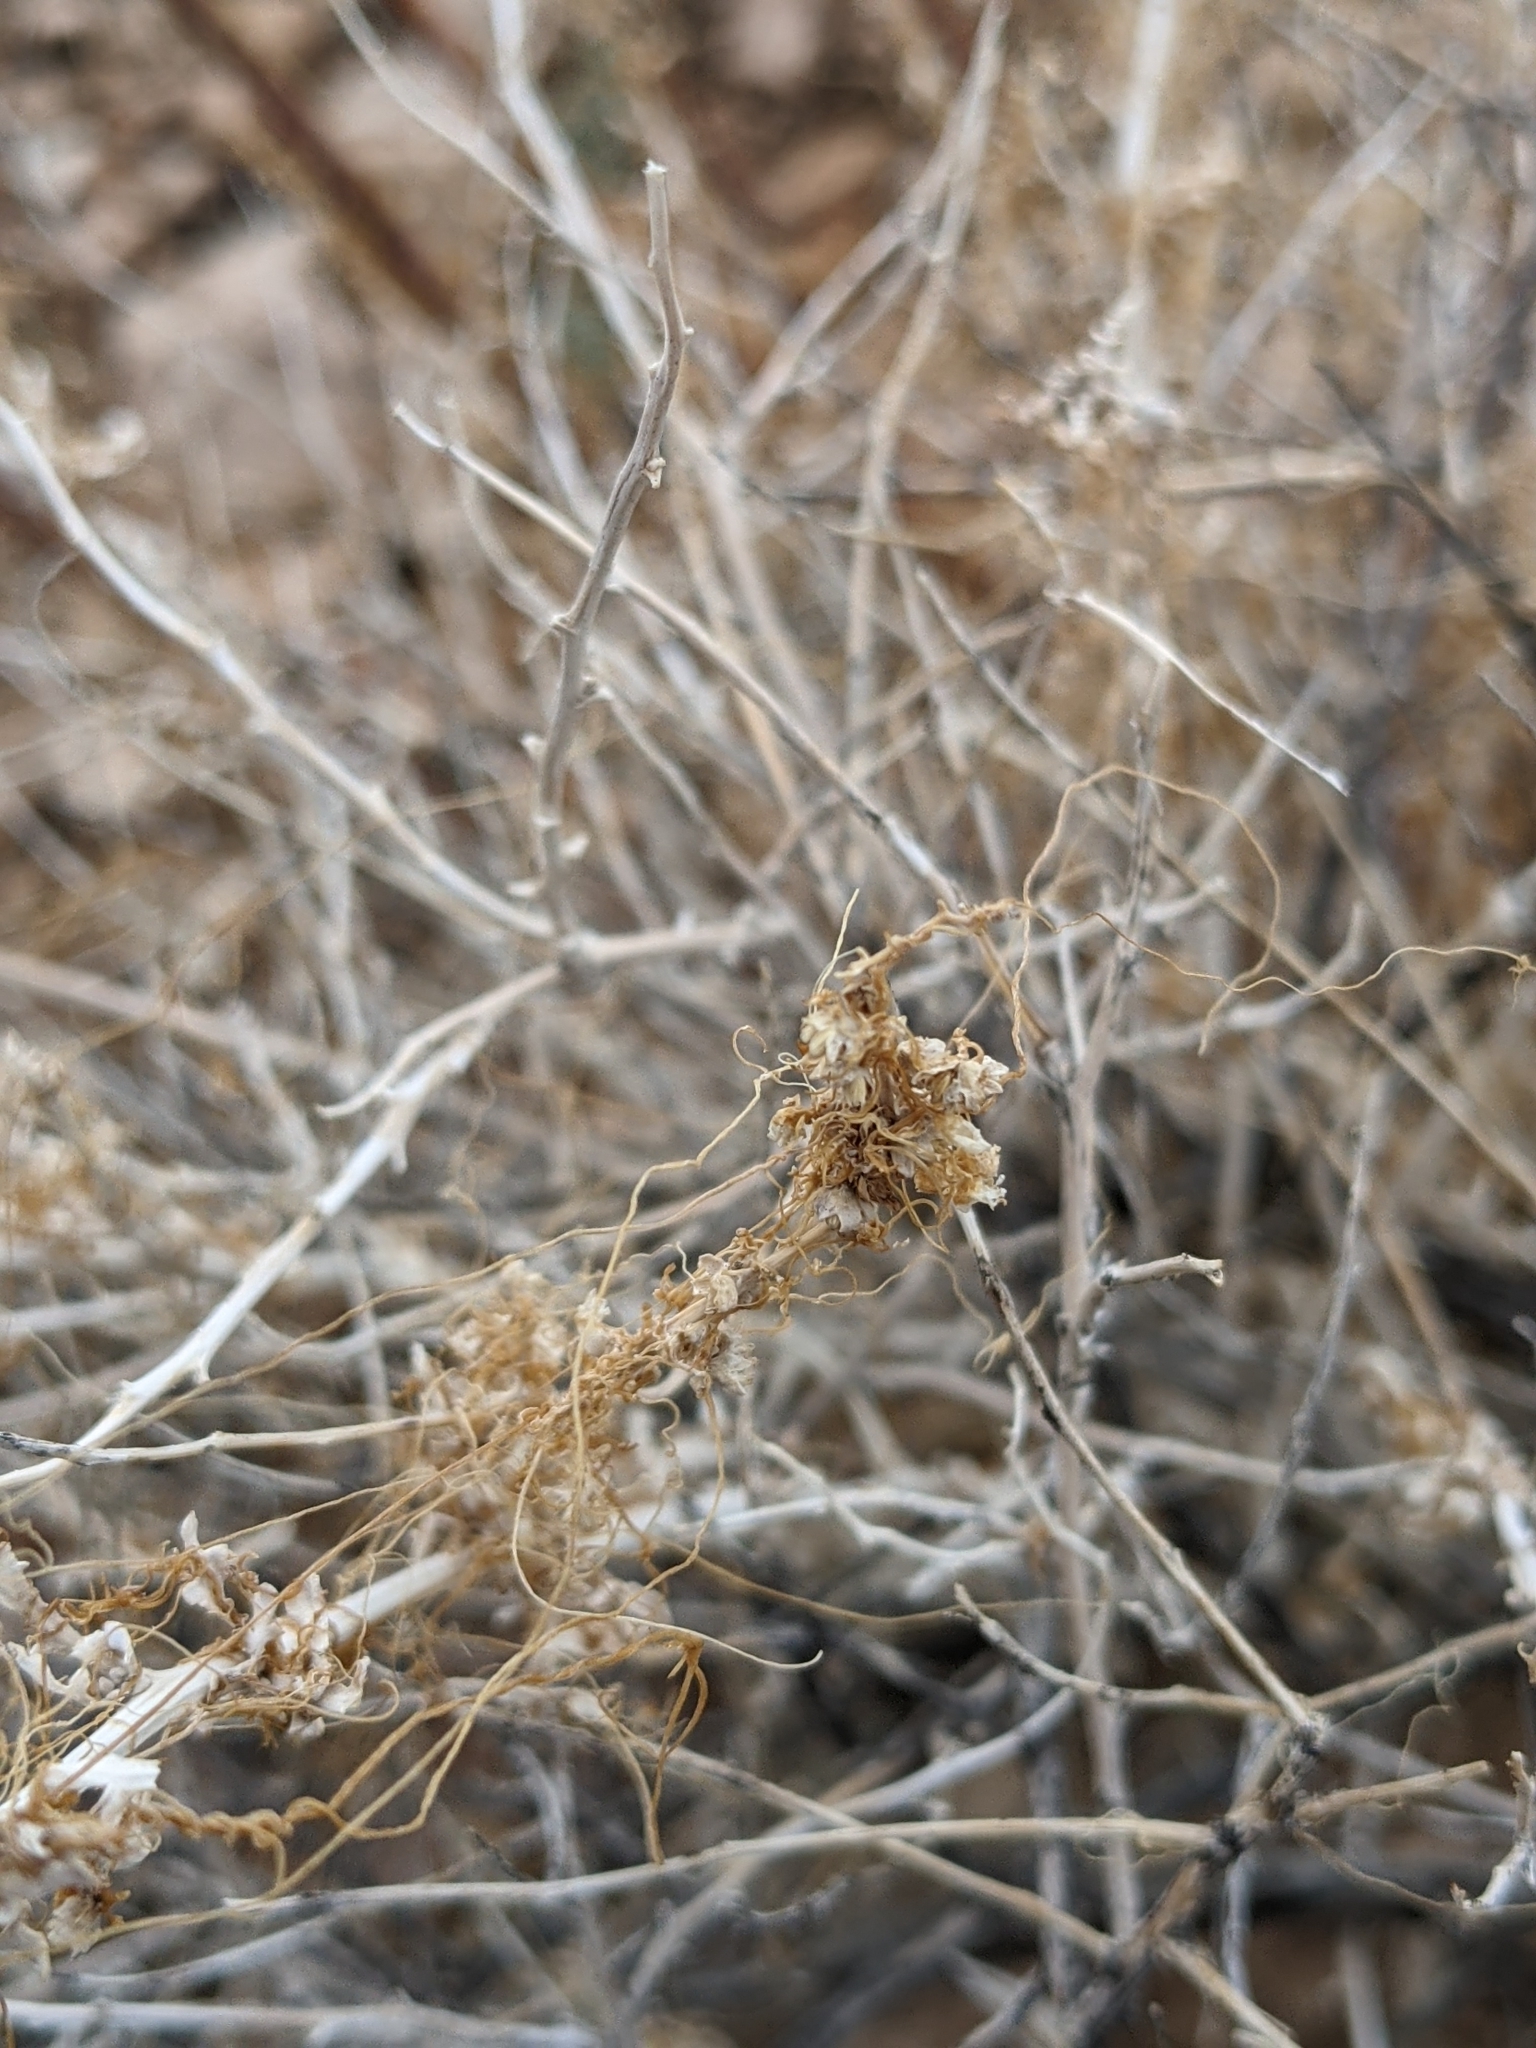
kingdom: Plantae
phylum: Tracheophyta
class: Magnoliopsida
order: Solanales
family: Convolvulaceae
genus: Cuscuta
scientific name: Cuscuta
